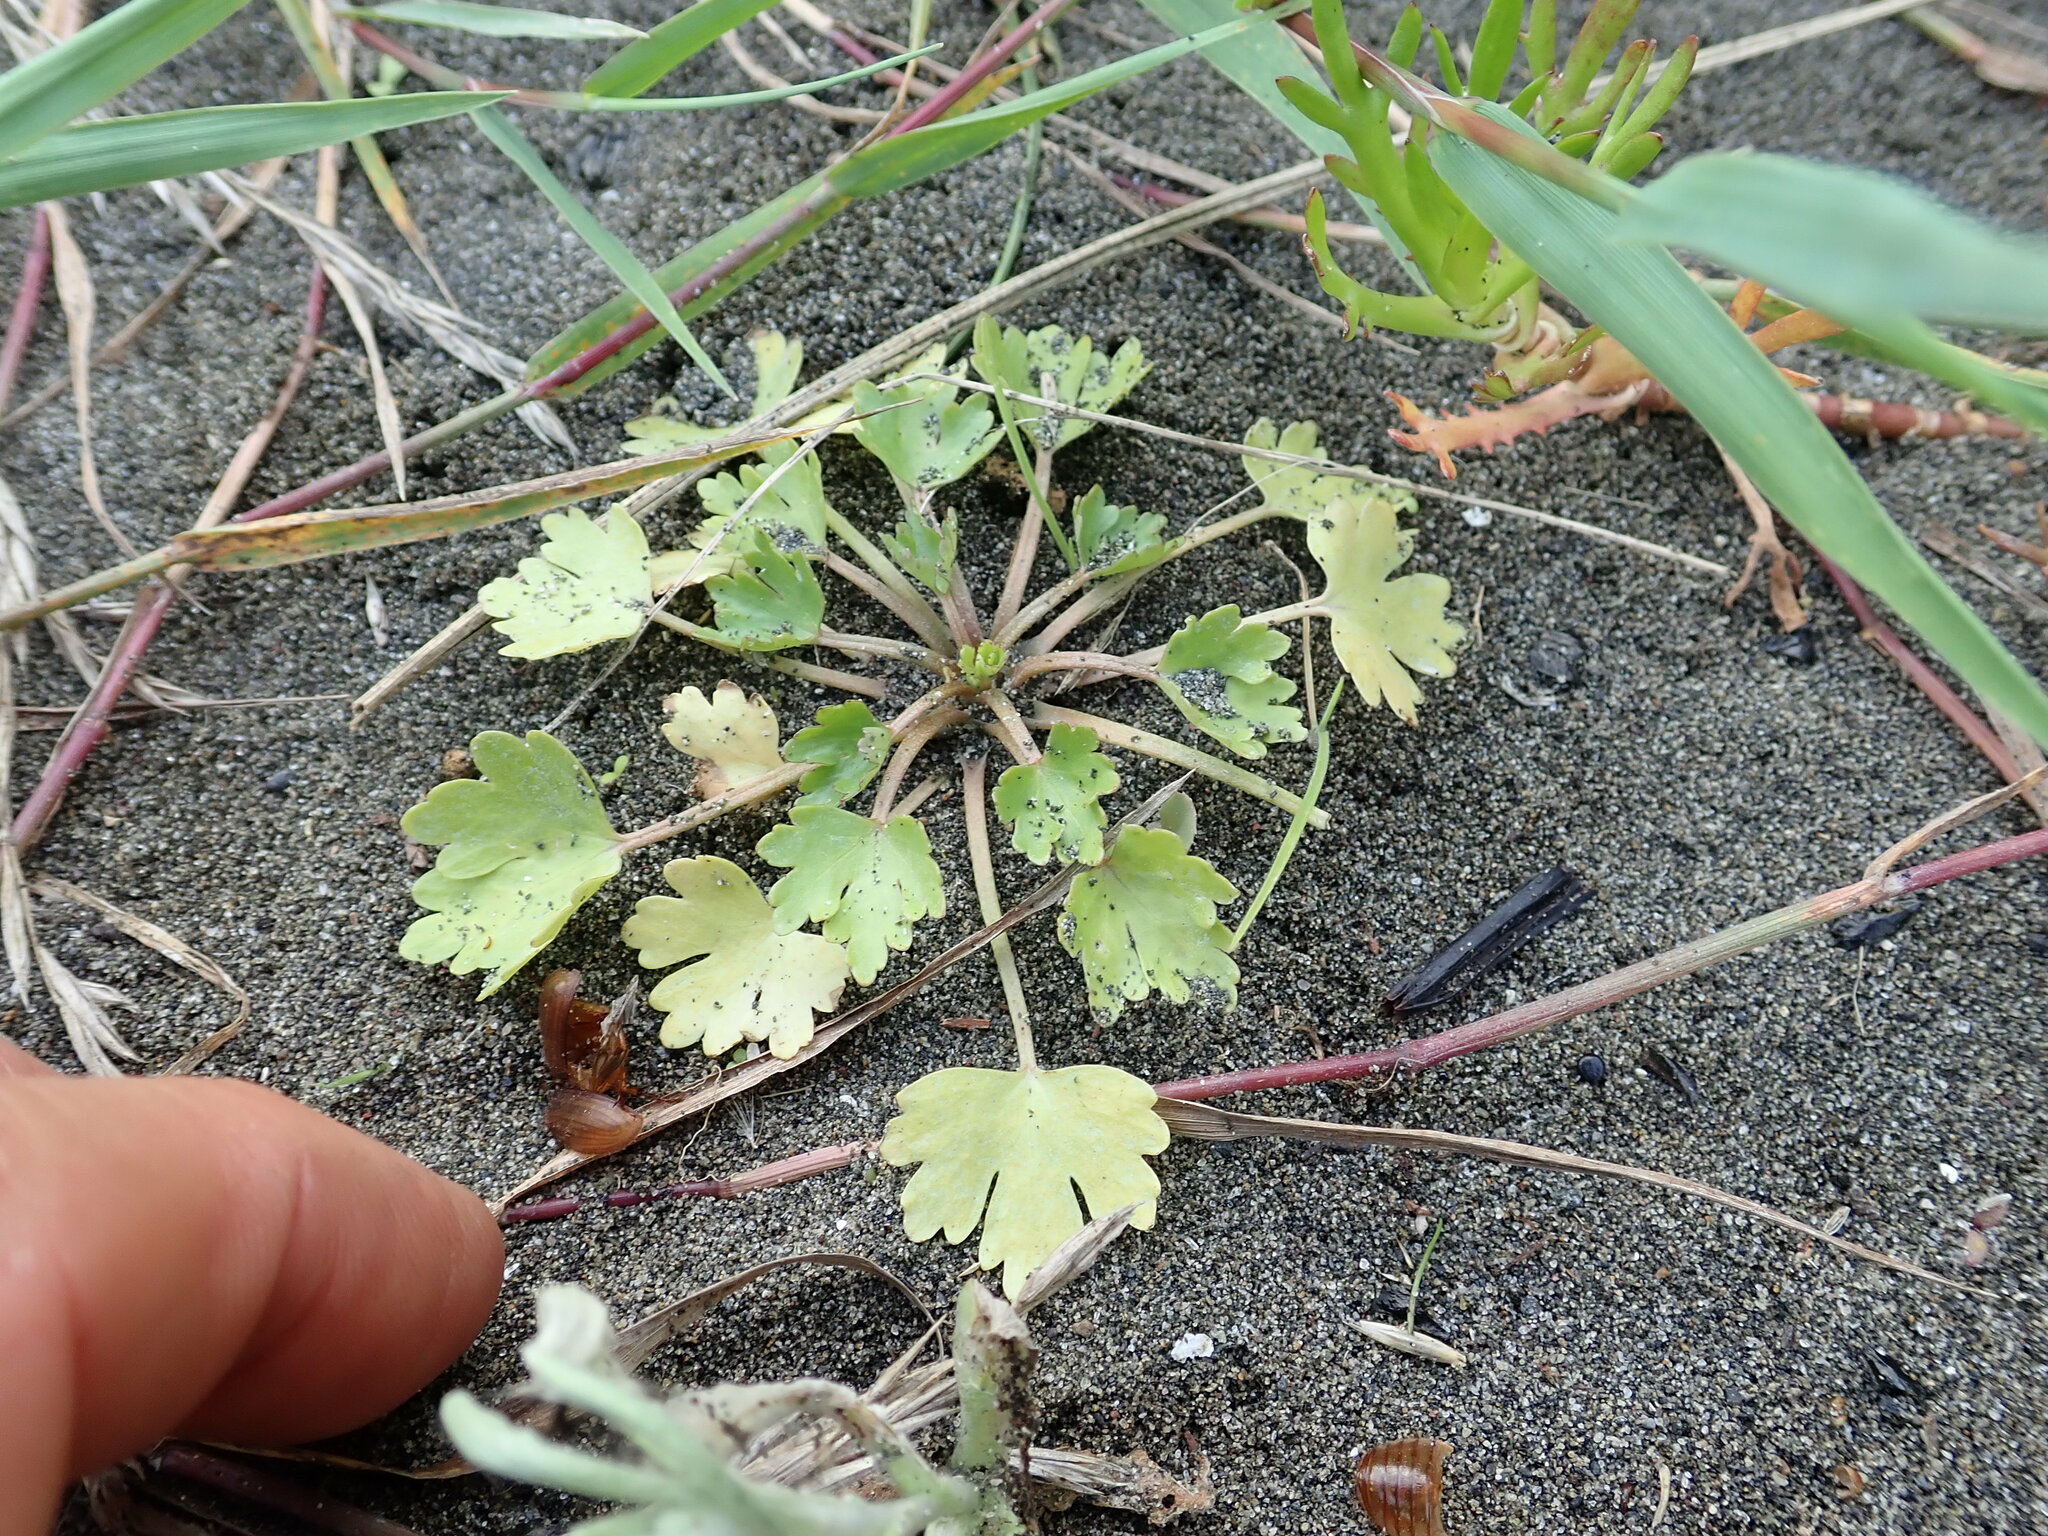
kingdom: Plantae
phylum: Tracheophyta
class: Magnoliopsida
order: Ranunculales
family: Ranunculaceae
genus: Ranunculus
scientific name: Ranunculus sceleratus
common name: Celery-leaved buttercup
